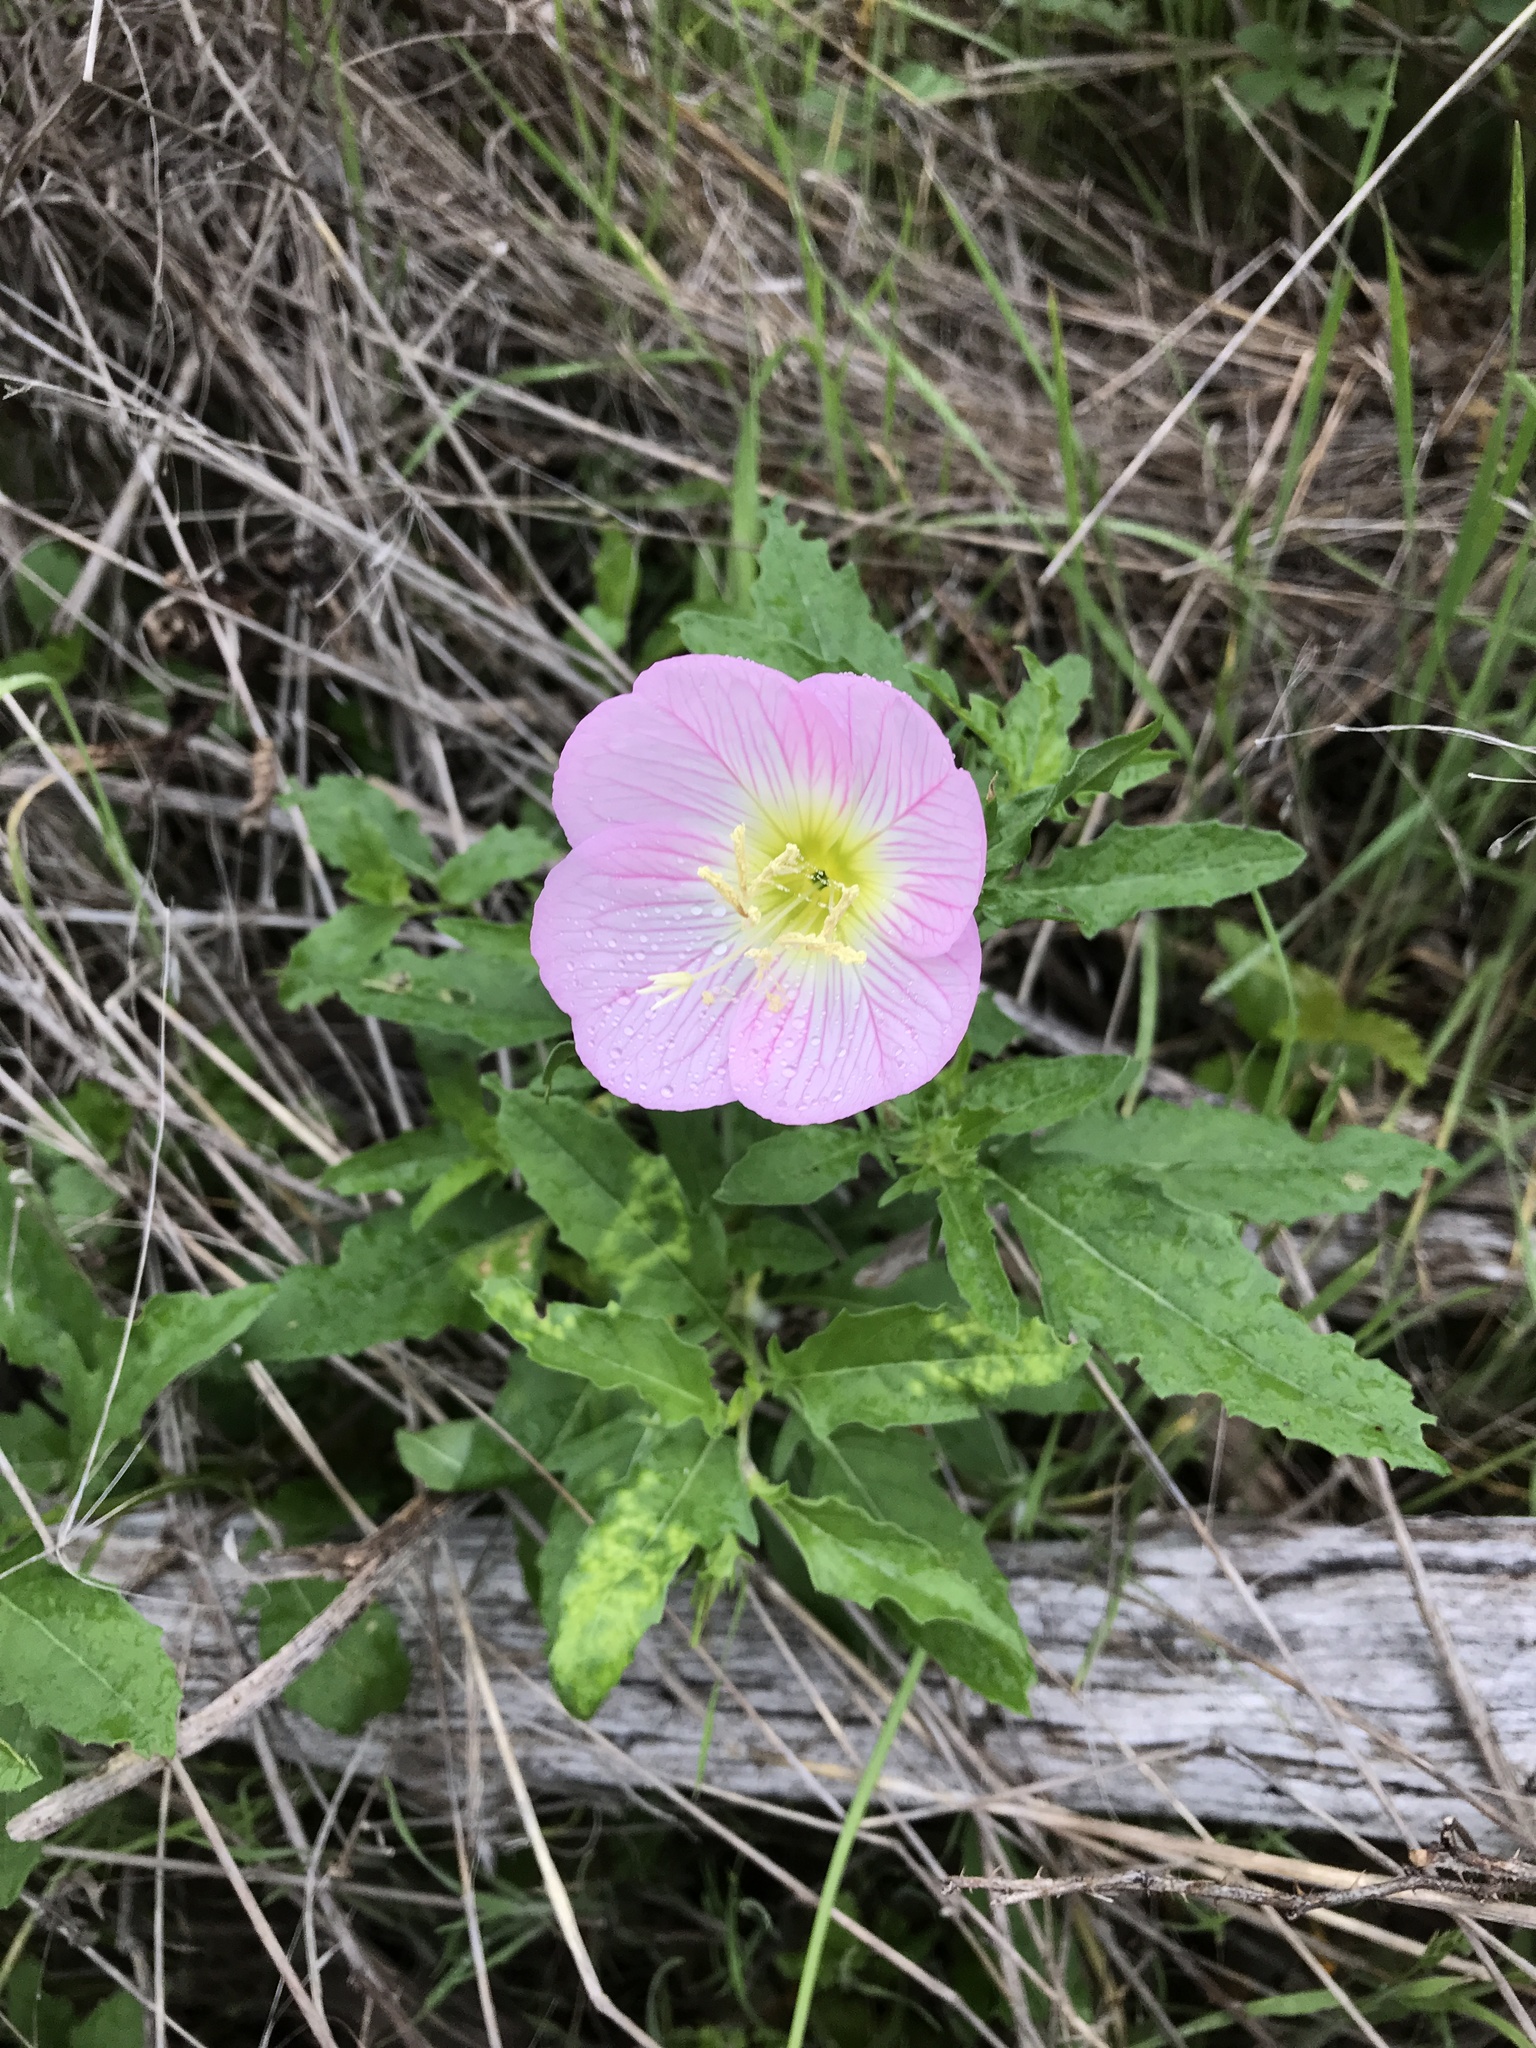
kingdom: Plantae
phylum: Tracheophyta
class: Magnoliopsida
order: Myrtales
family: Onagraceae
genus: Oenothera
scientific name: Oenothera speciosa
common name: White evening-primrose
